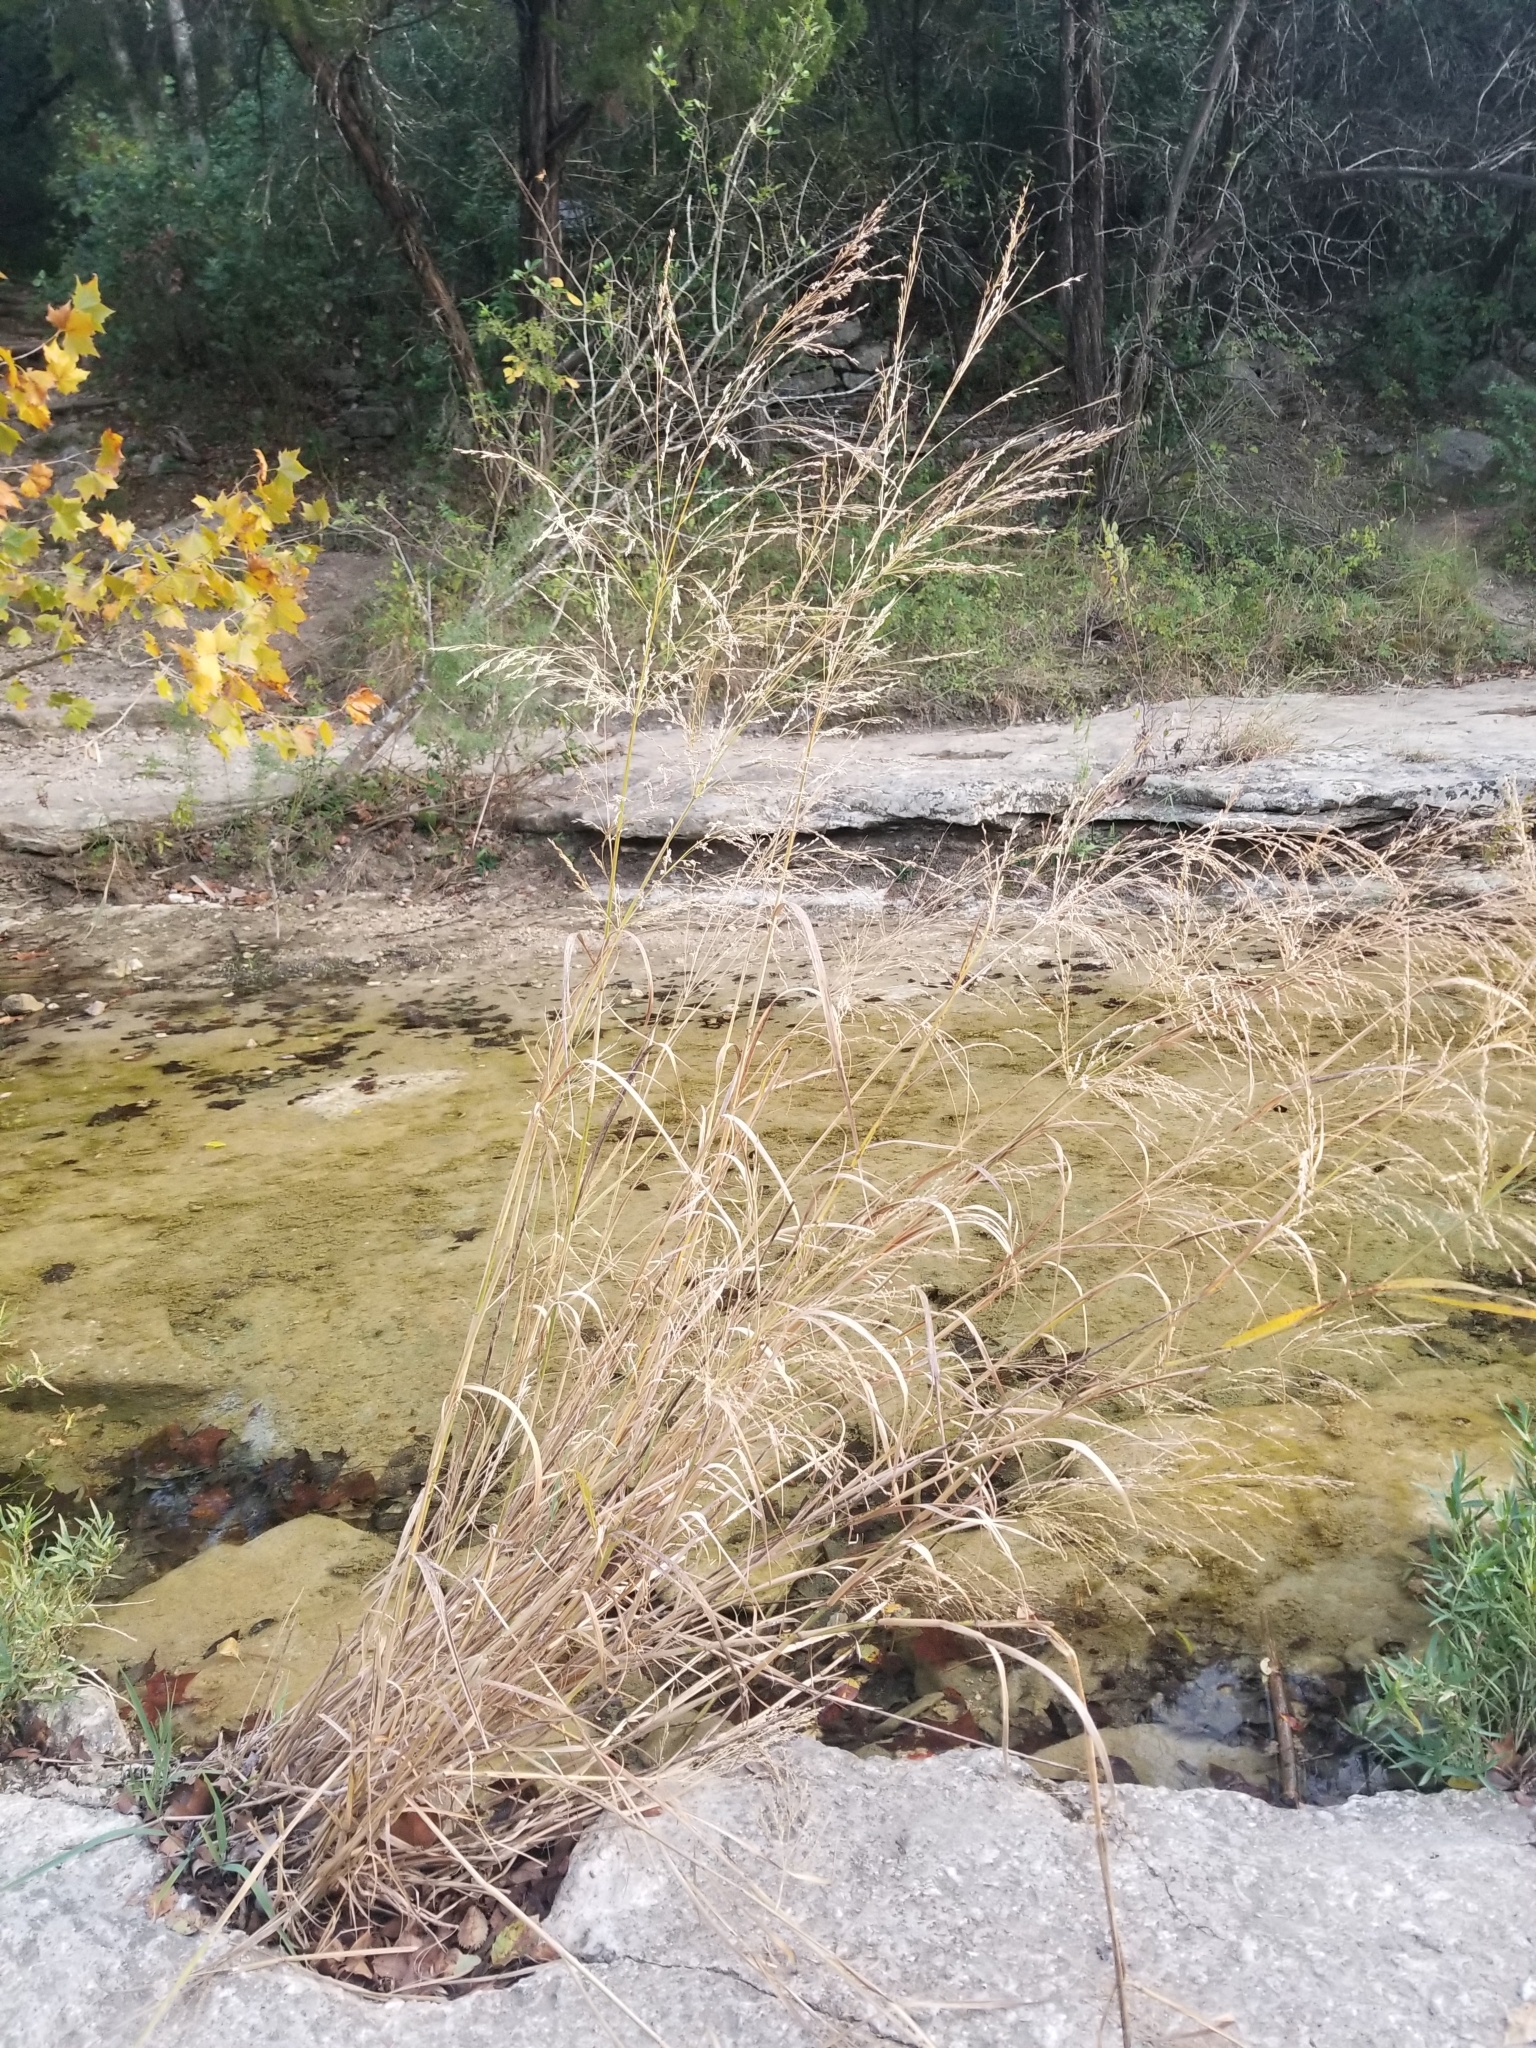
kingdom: Plantae
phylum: Tracheophyta
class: Liliopsida
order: Poales
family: Poaceae
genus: Panicum
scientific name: Panicum virgatum
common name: Switchgrass
